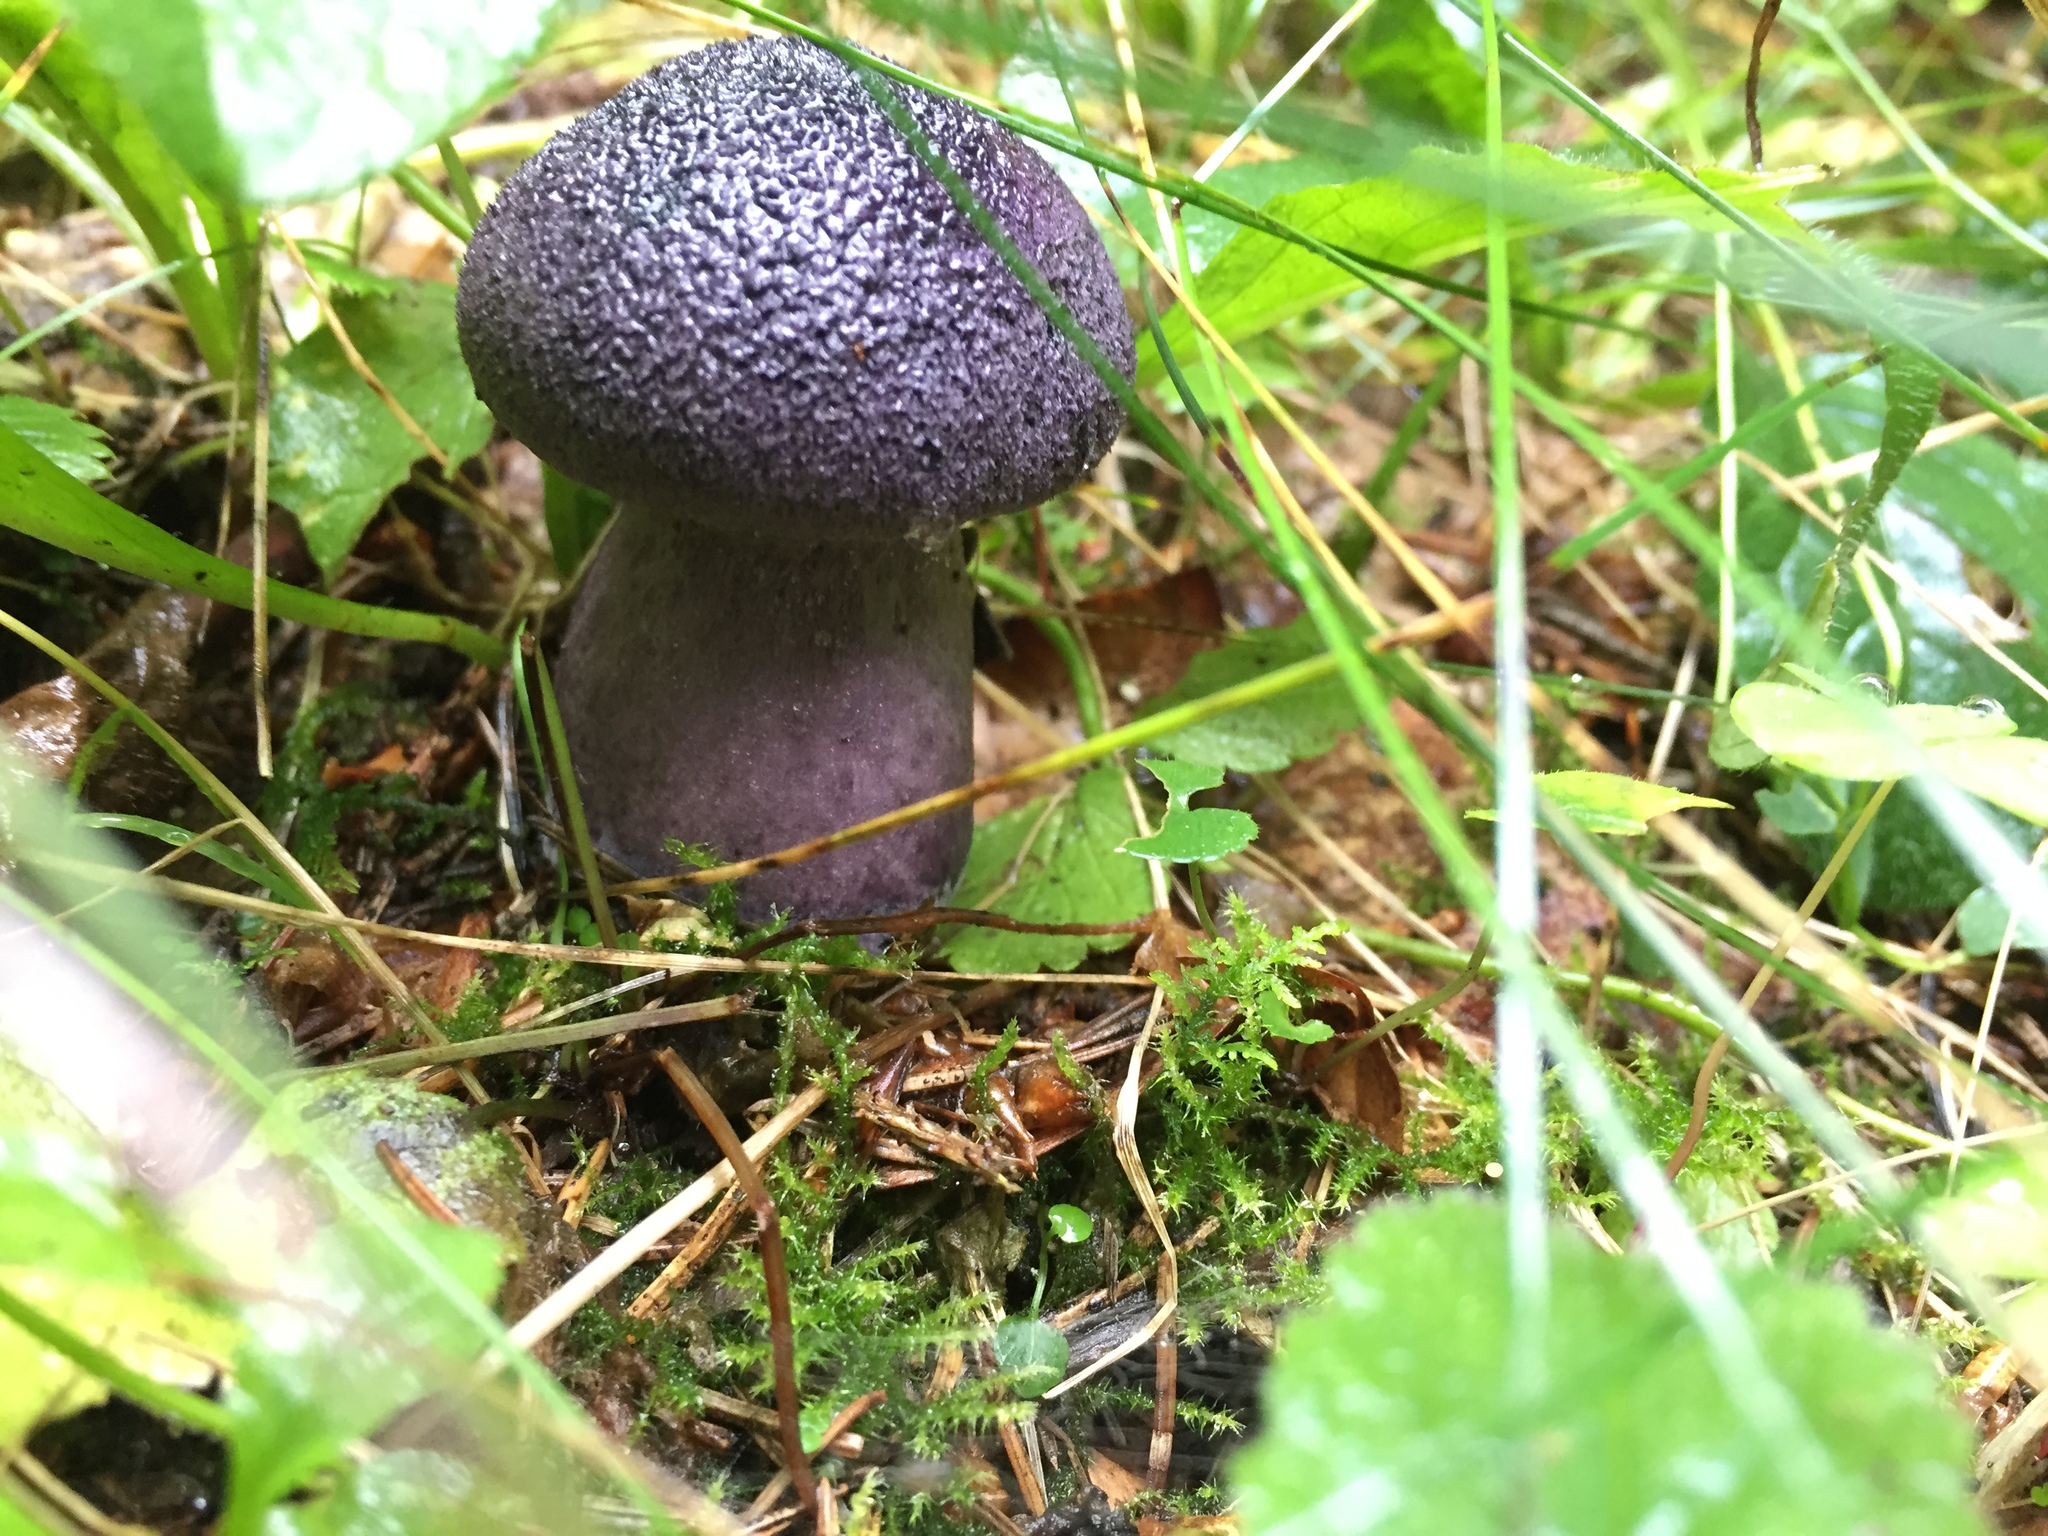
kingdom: Fungi
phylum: Basidiomycota
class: Agaricomycetes
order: Agaricales
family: Cortinariaceae
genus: Cortinarius
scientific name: Cortinarius violaceus
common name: Violet webcap
